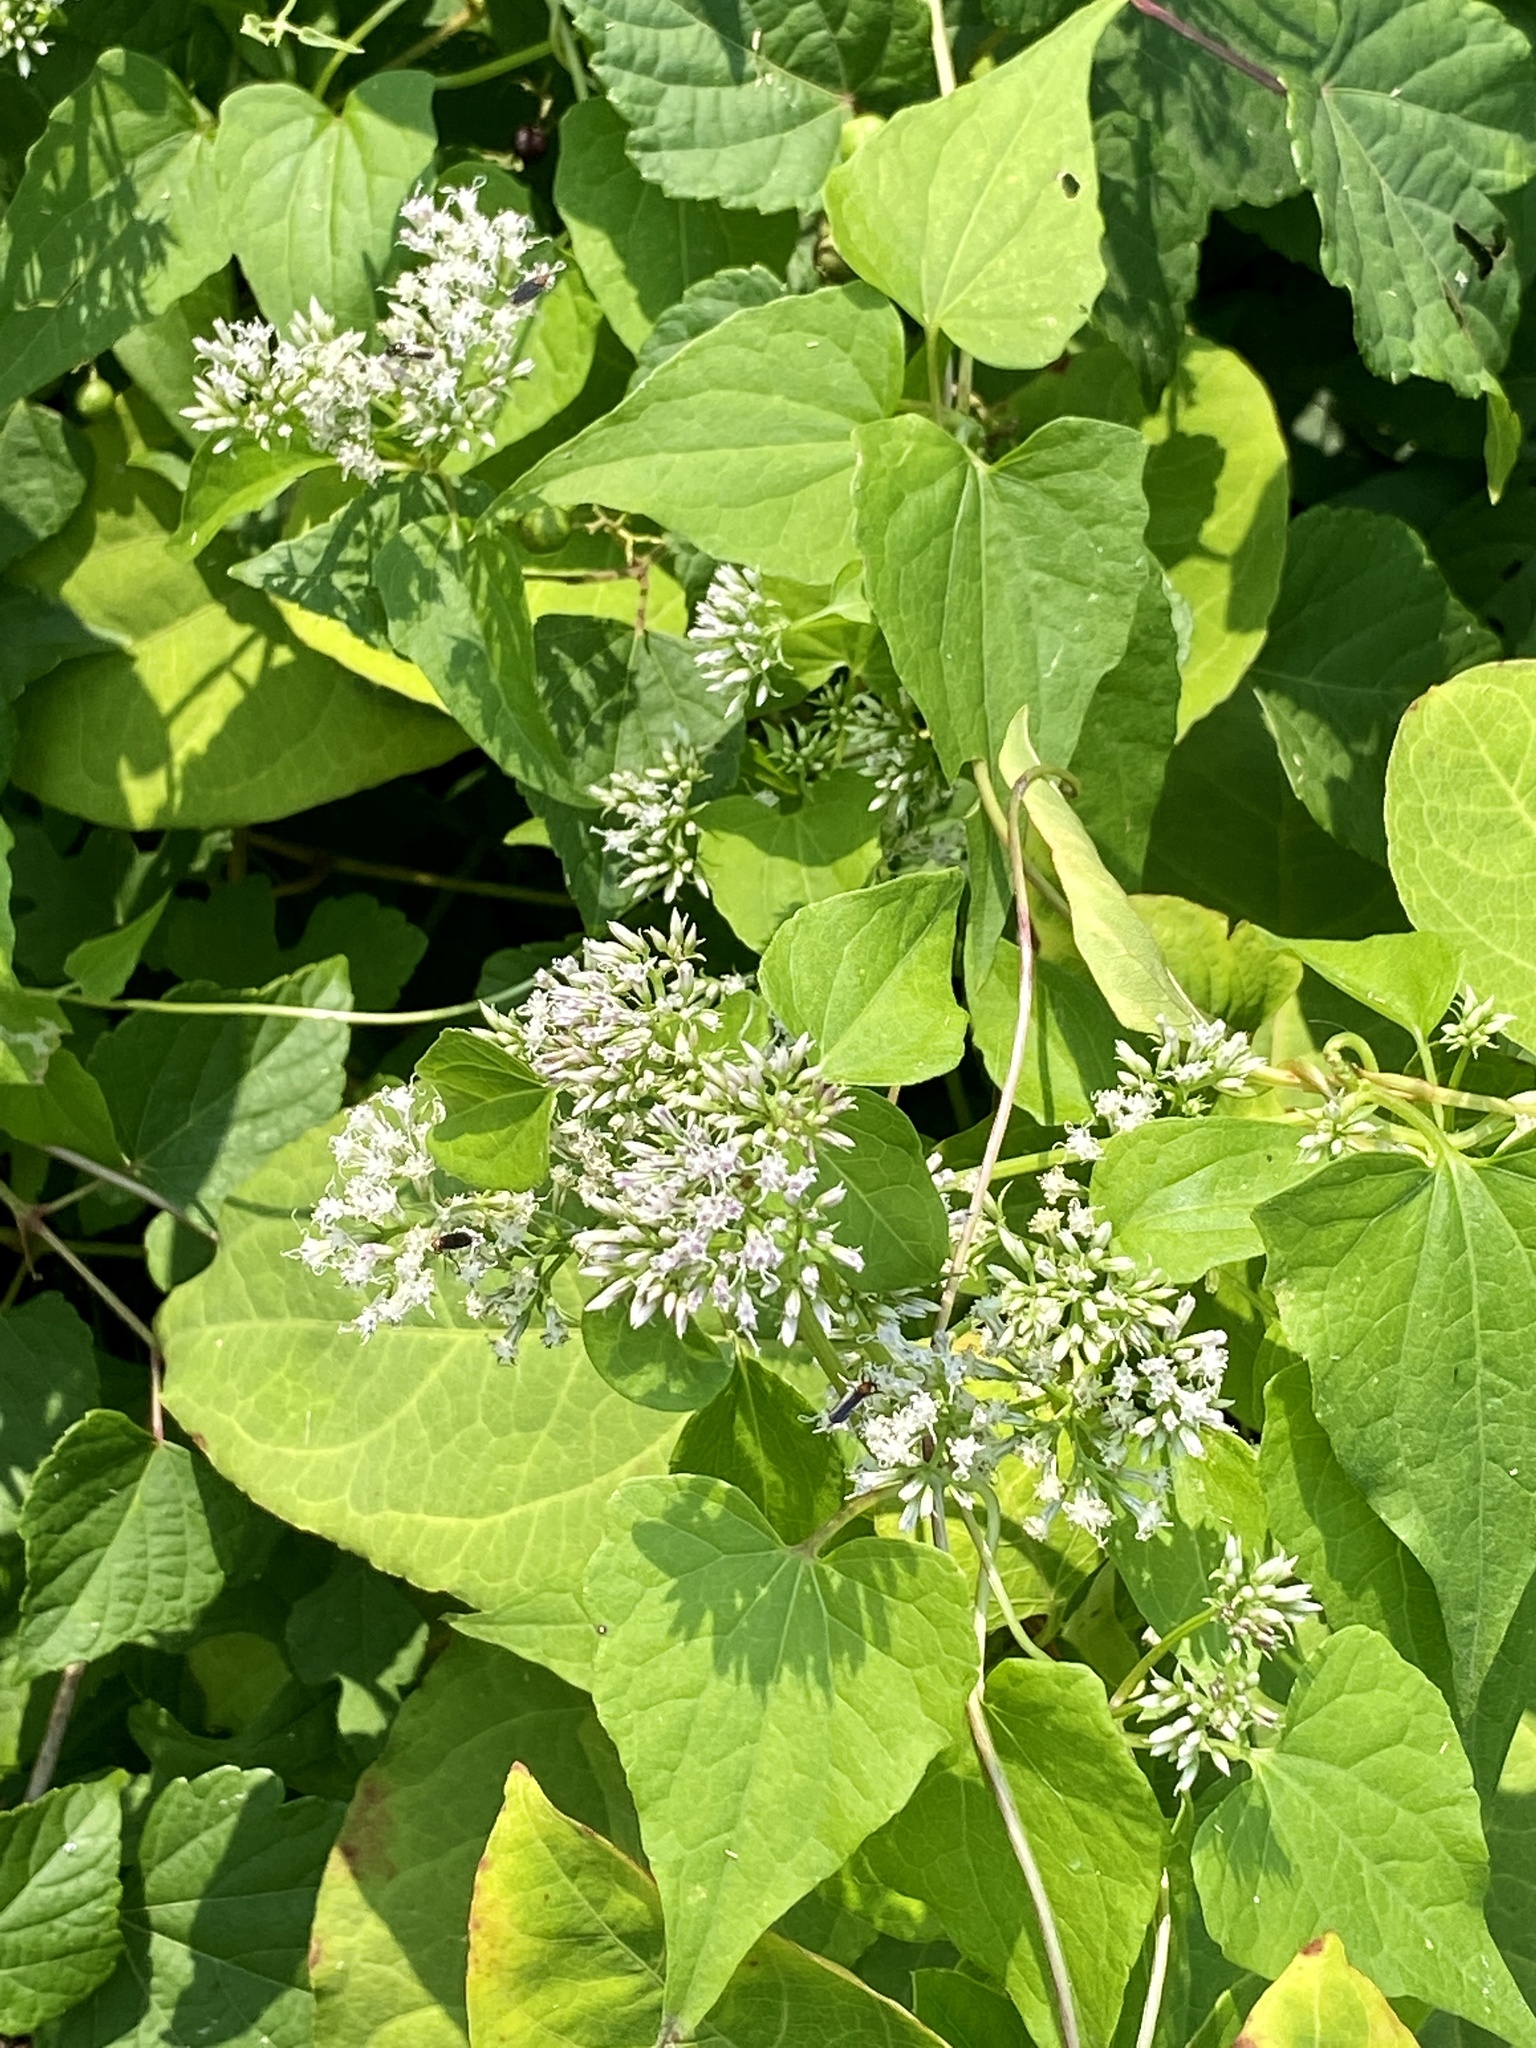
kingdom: Plantae
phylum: Tracheophyta
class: Magnoliopsida
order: Asterales
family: Asteraceae
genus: Mikania
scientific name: Mikania scandens
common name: Climbing hempvine
